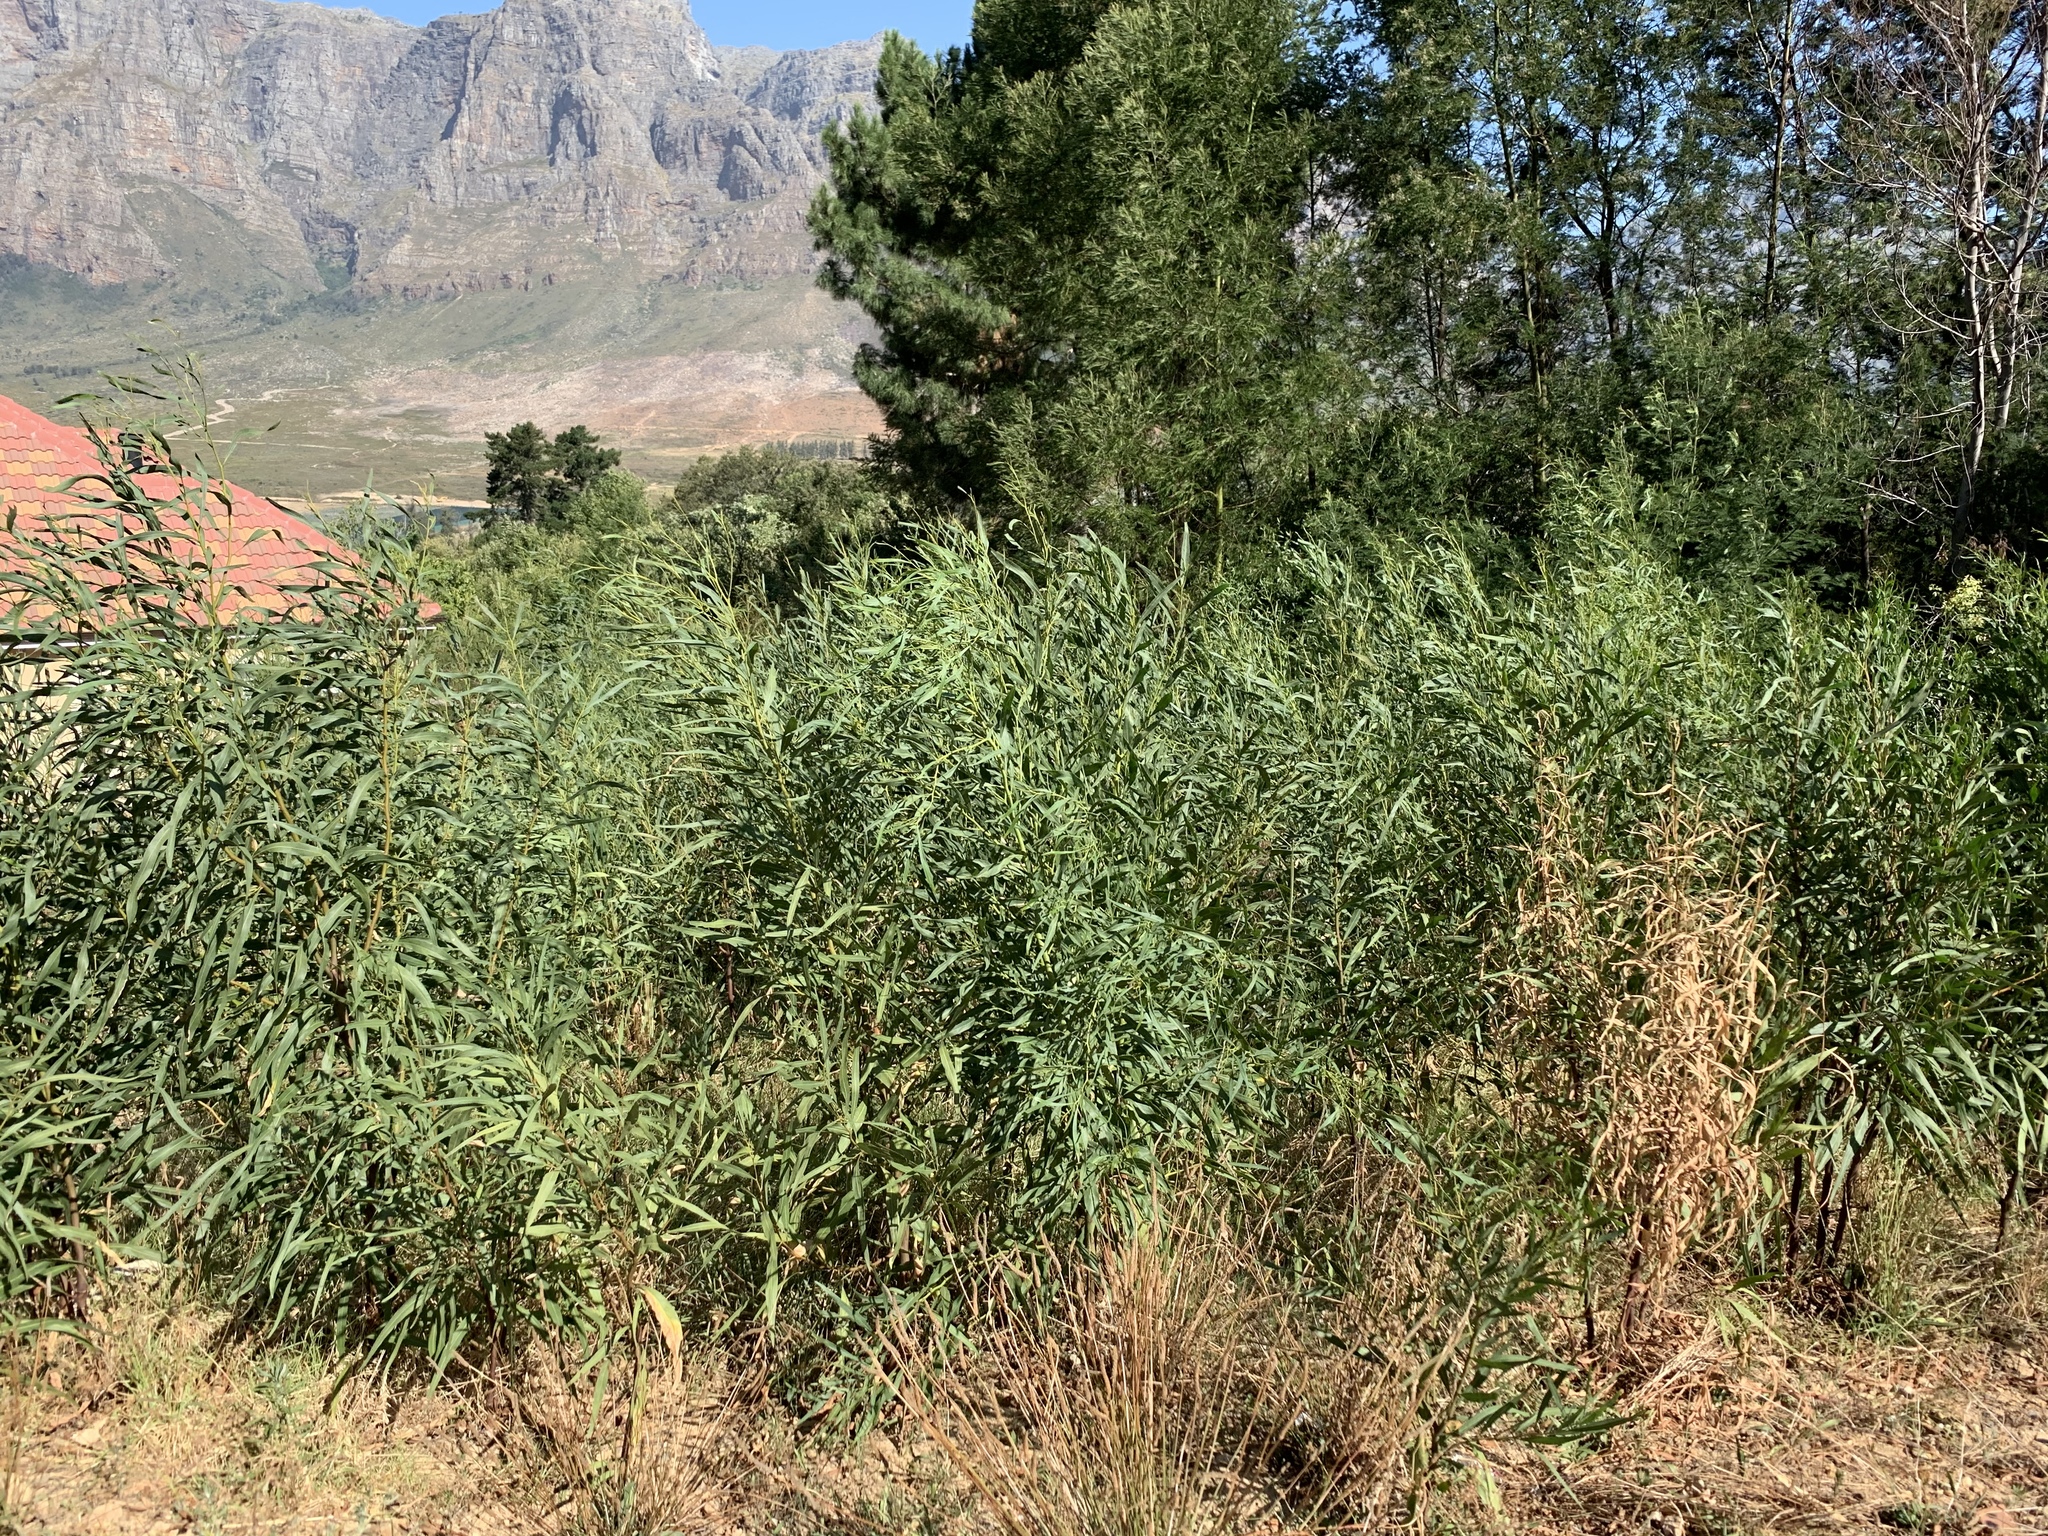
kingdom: Plantae
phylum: Tracheophyta
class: Magnoliopsida
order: Fabales
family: Fabaceae
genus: Acacia
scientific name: Acacia saligna
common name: Orange wattle
